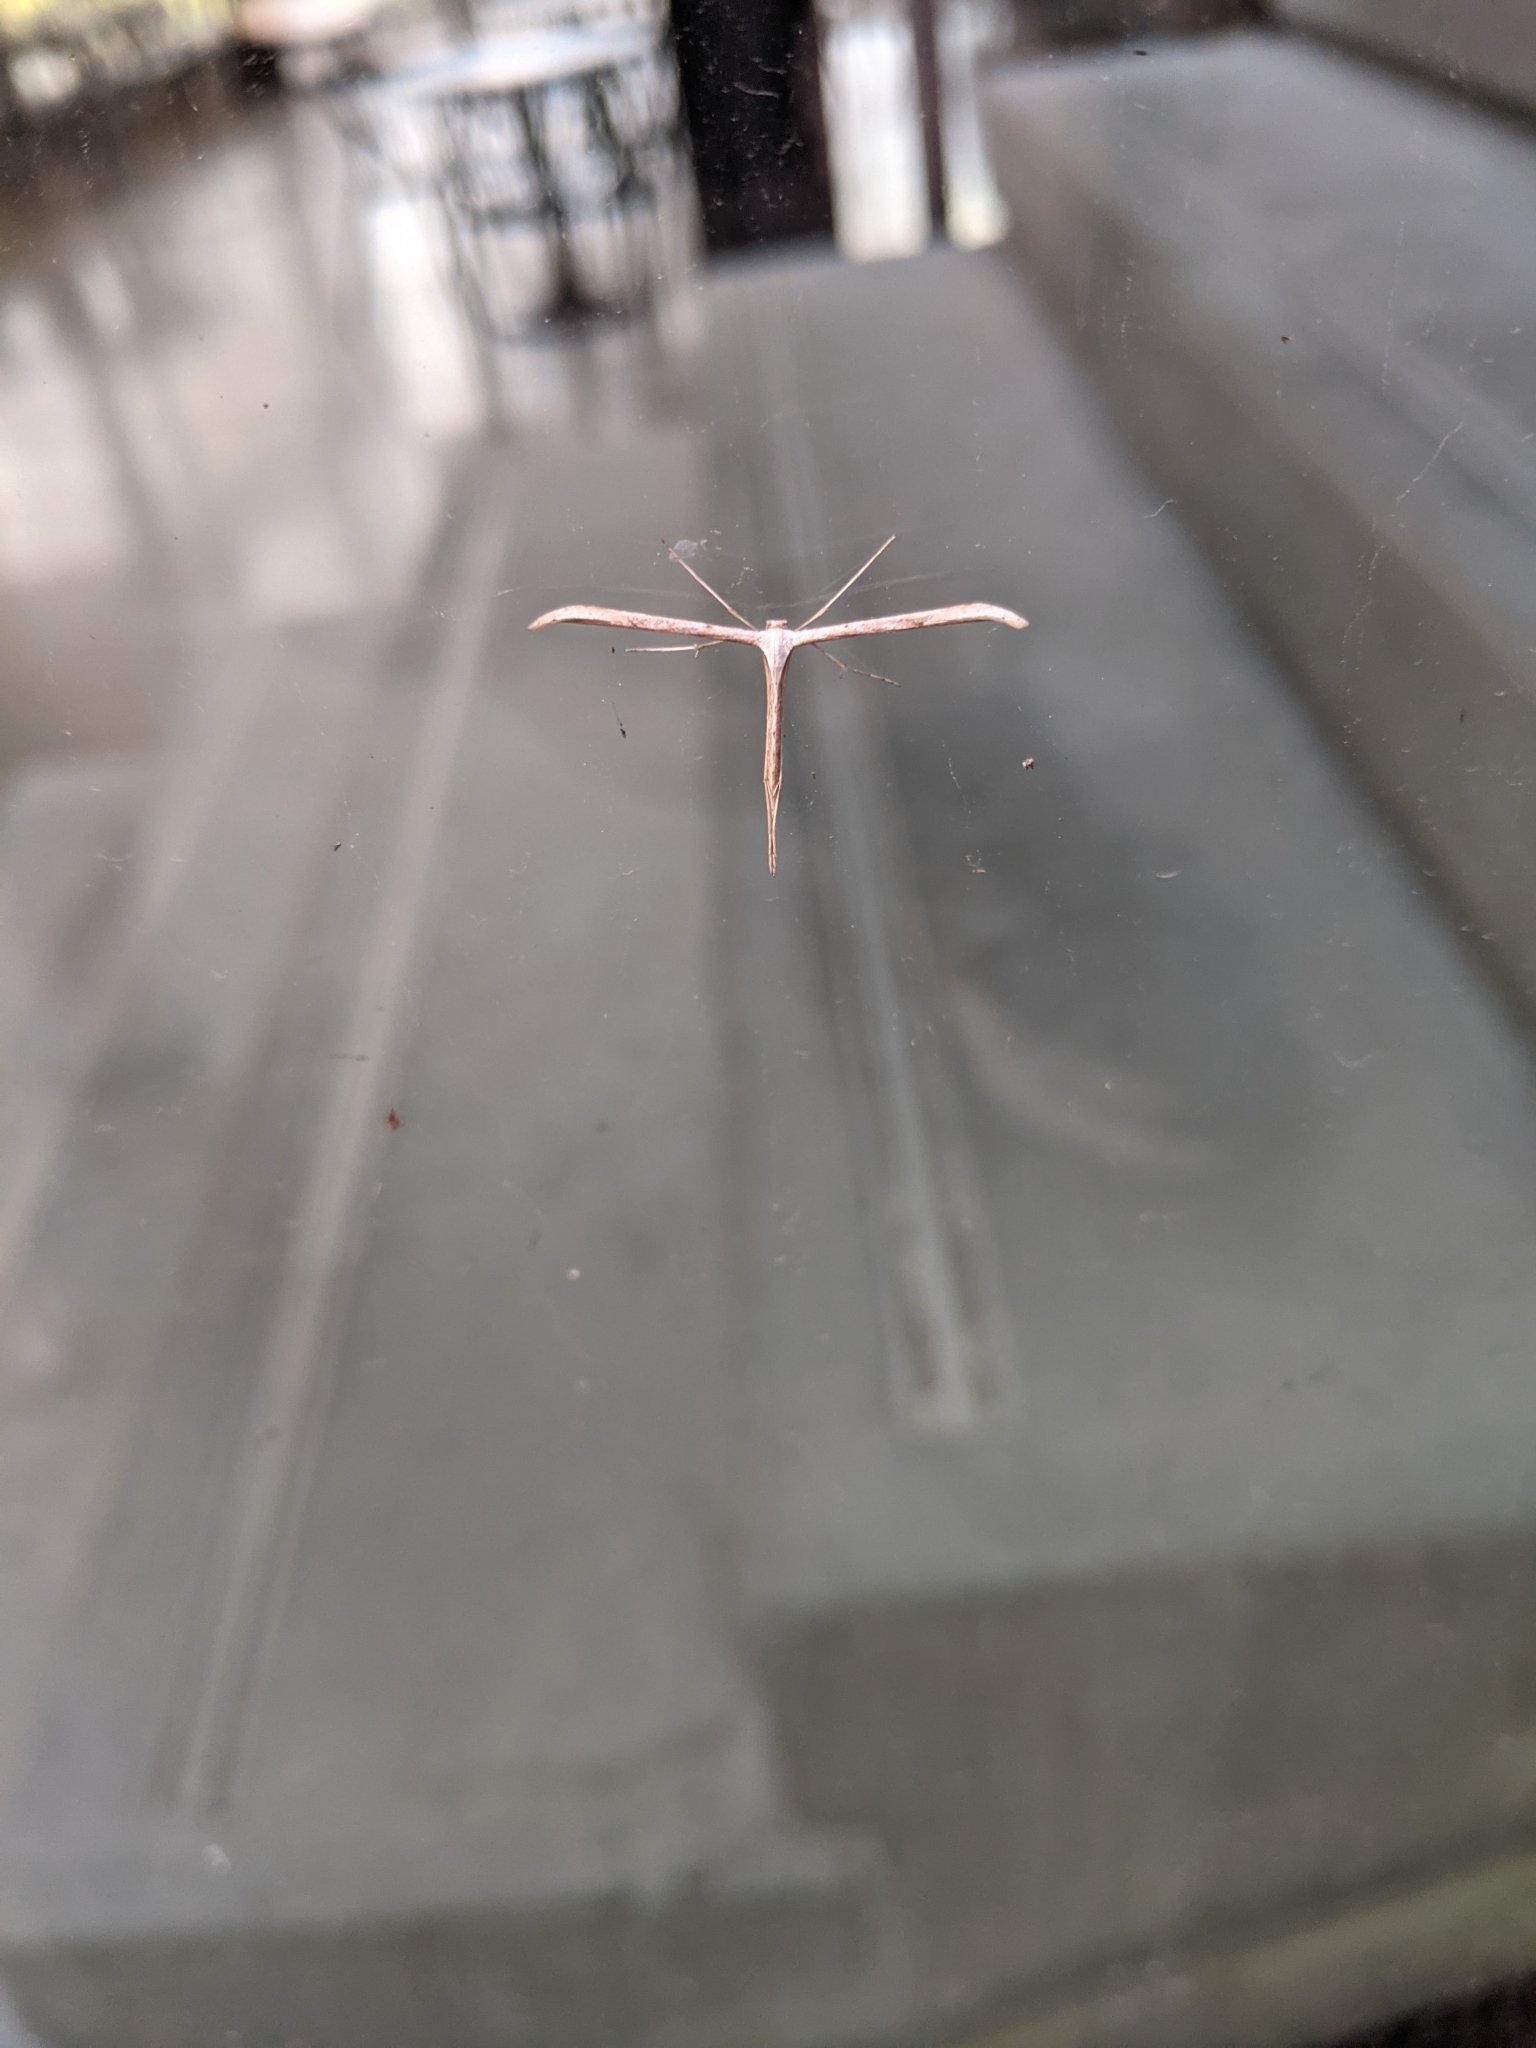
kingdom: Animalia
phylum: Arthropoda
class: Insecta
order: Lepidoptera
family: Pterophoridae
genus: Emmelina
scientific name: Emmelina monodactyla
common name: Common plume
